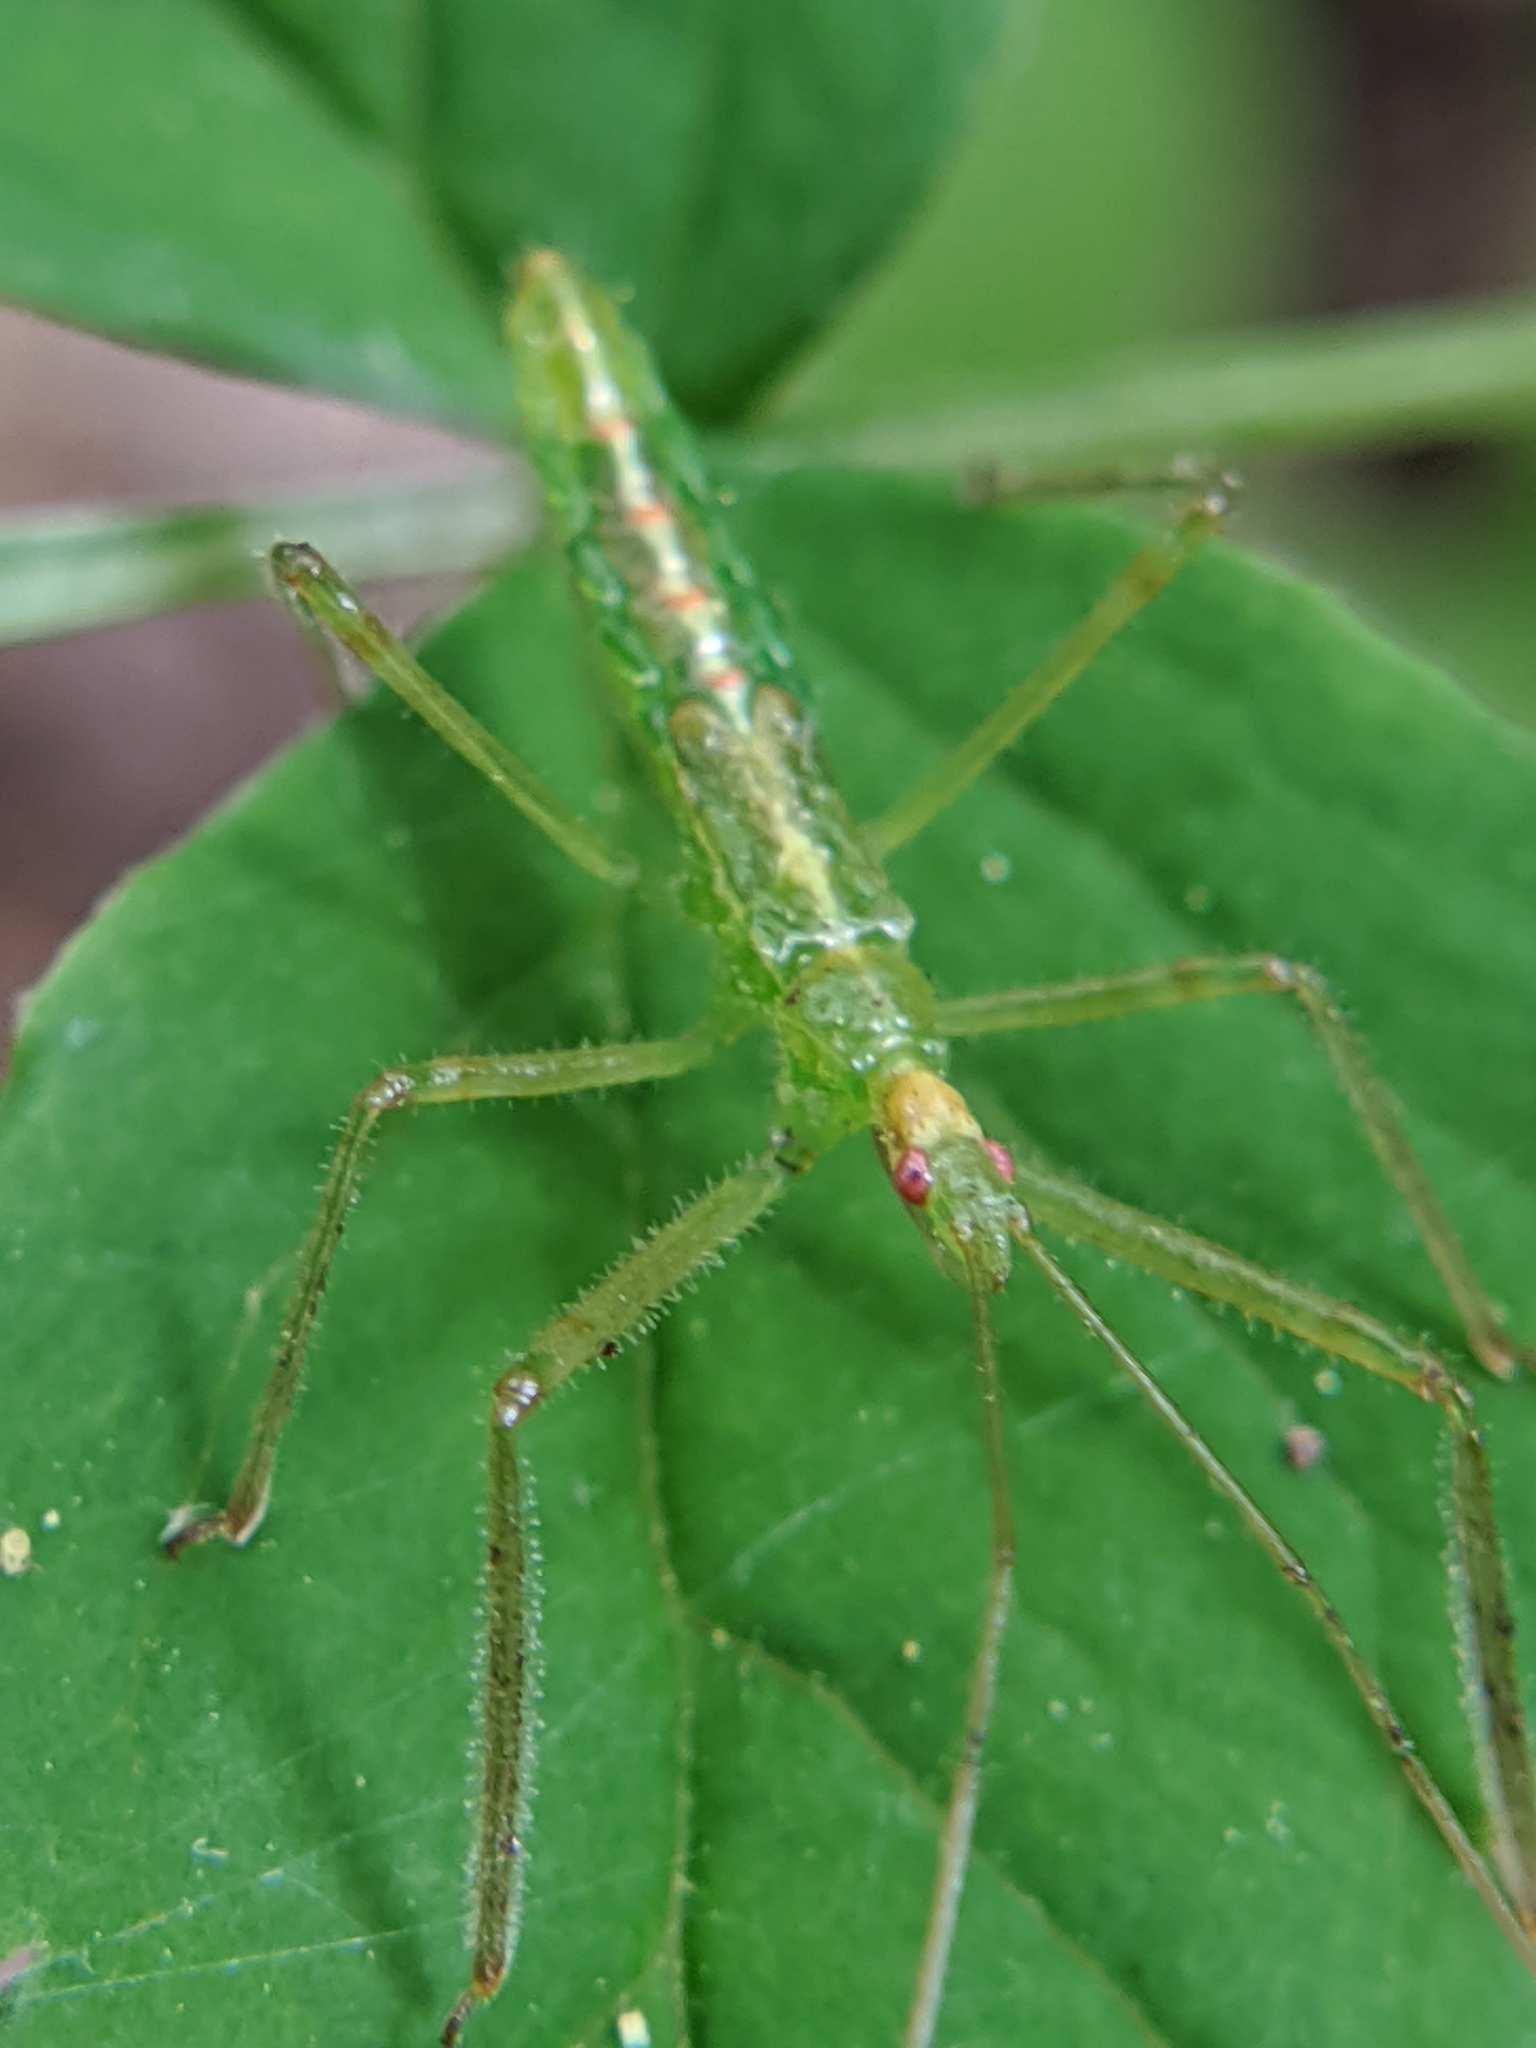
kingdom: Animalia
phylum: Arthropoda
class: Insecta
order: Hemiptera
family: Reduviidae
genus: Zelus
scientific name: Zelus luridus
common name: Pale green assassin bug
